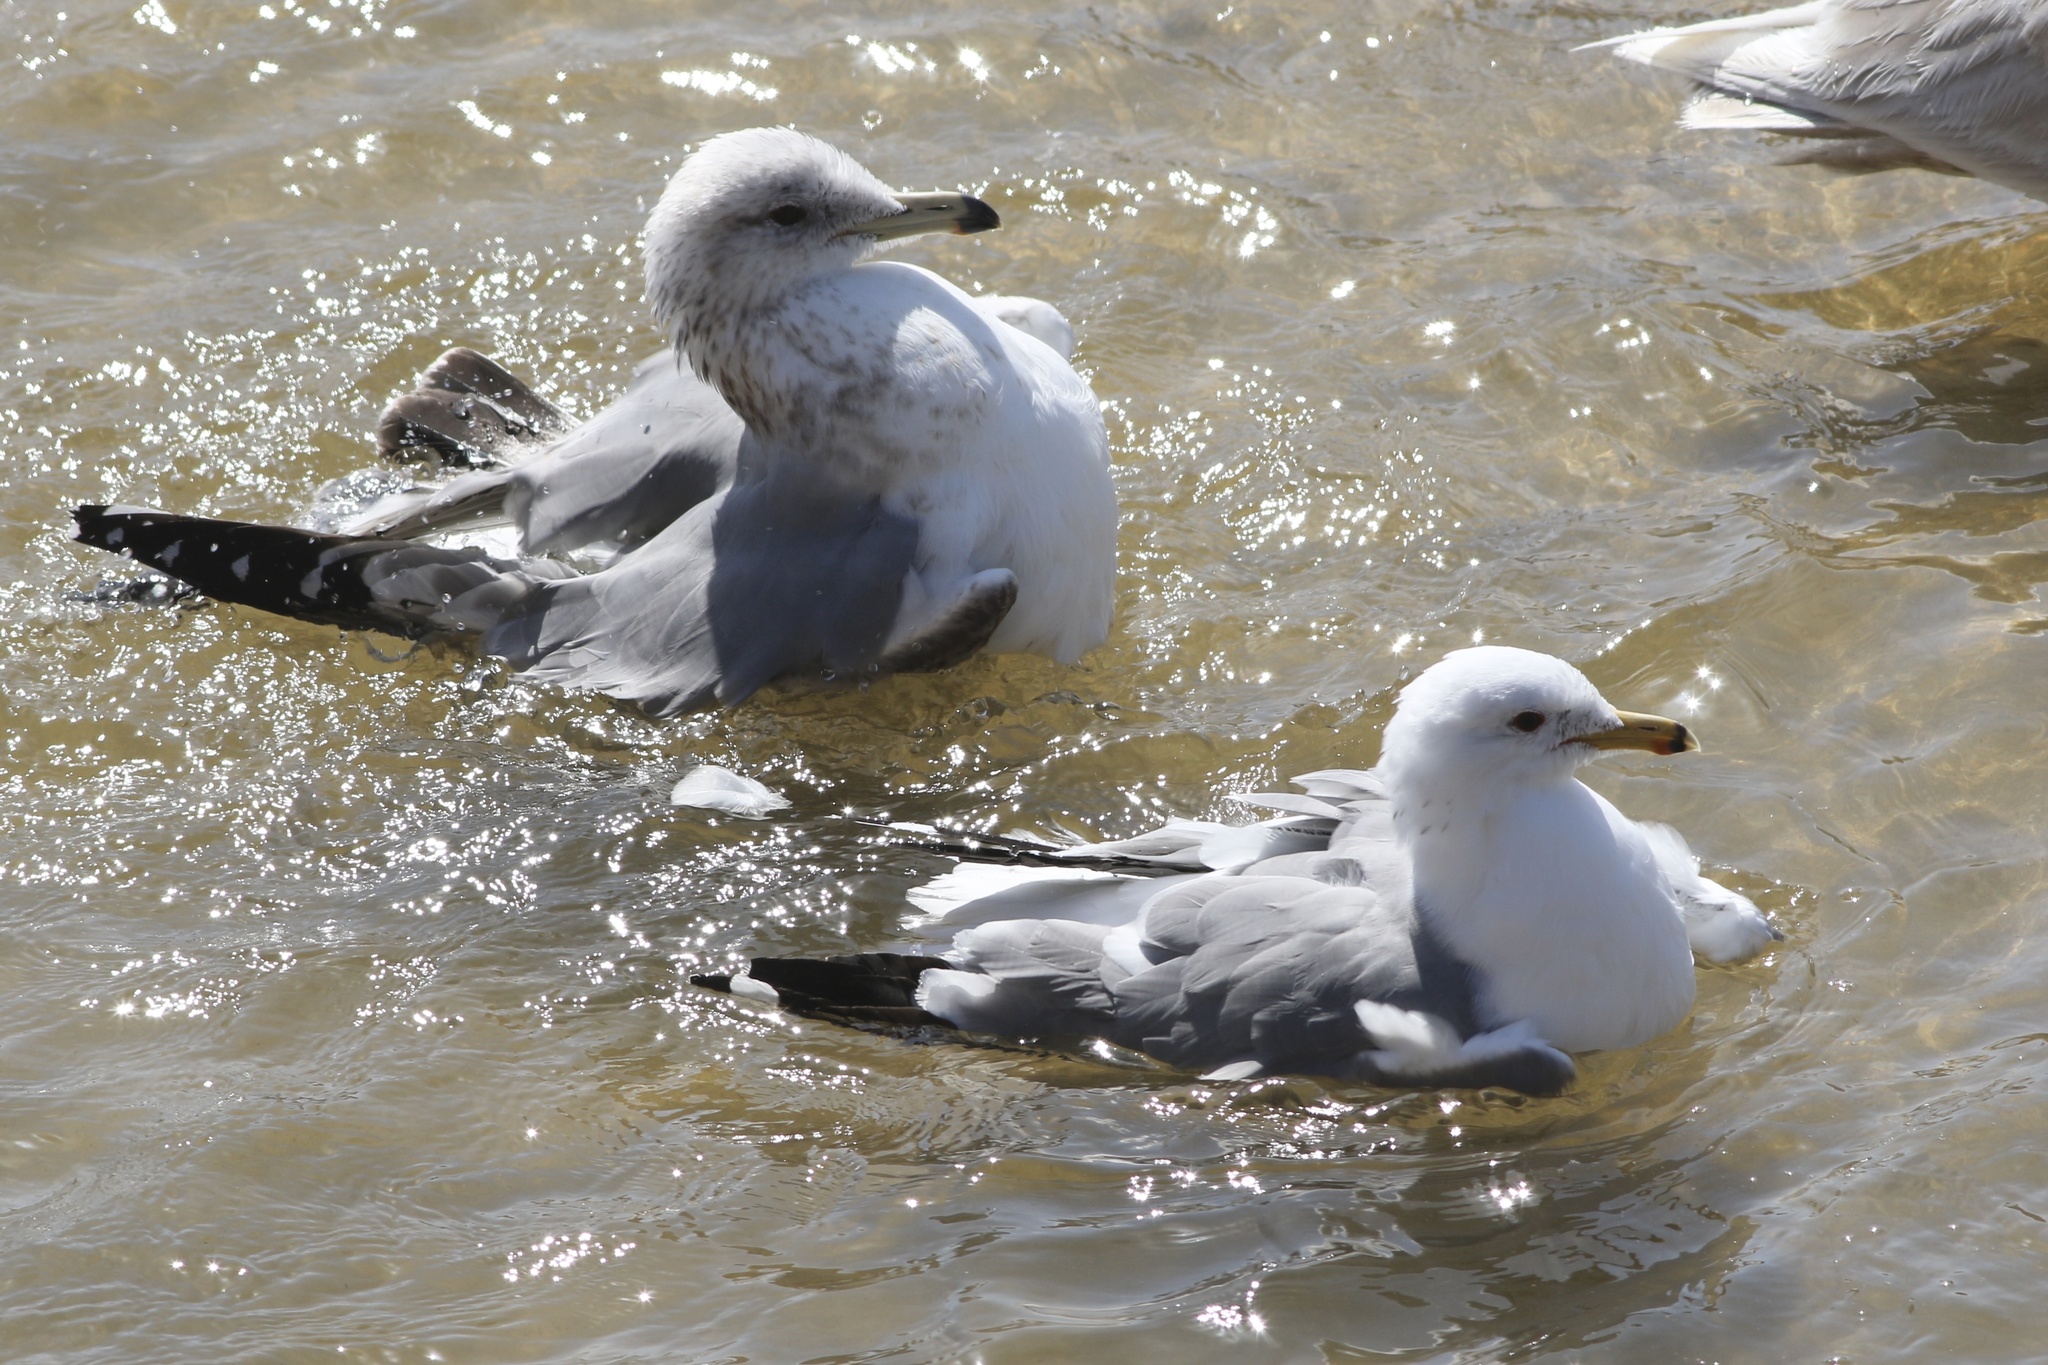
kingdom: Animalia
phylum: Chordata
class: Aves
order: Charadriiformes
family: Laridae
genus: Larus
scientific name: Larus californicus
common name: California gull
